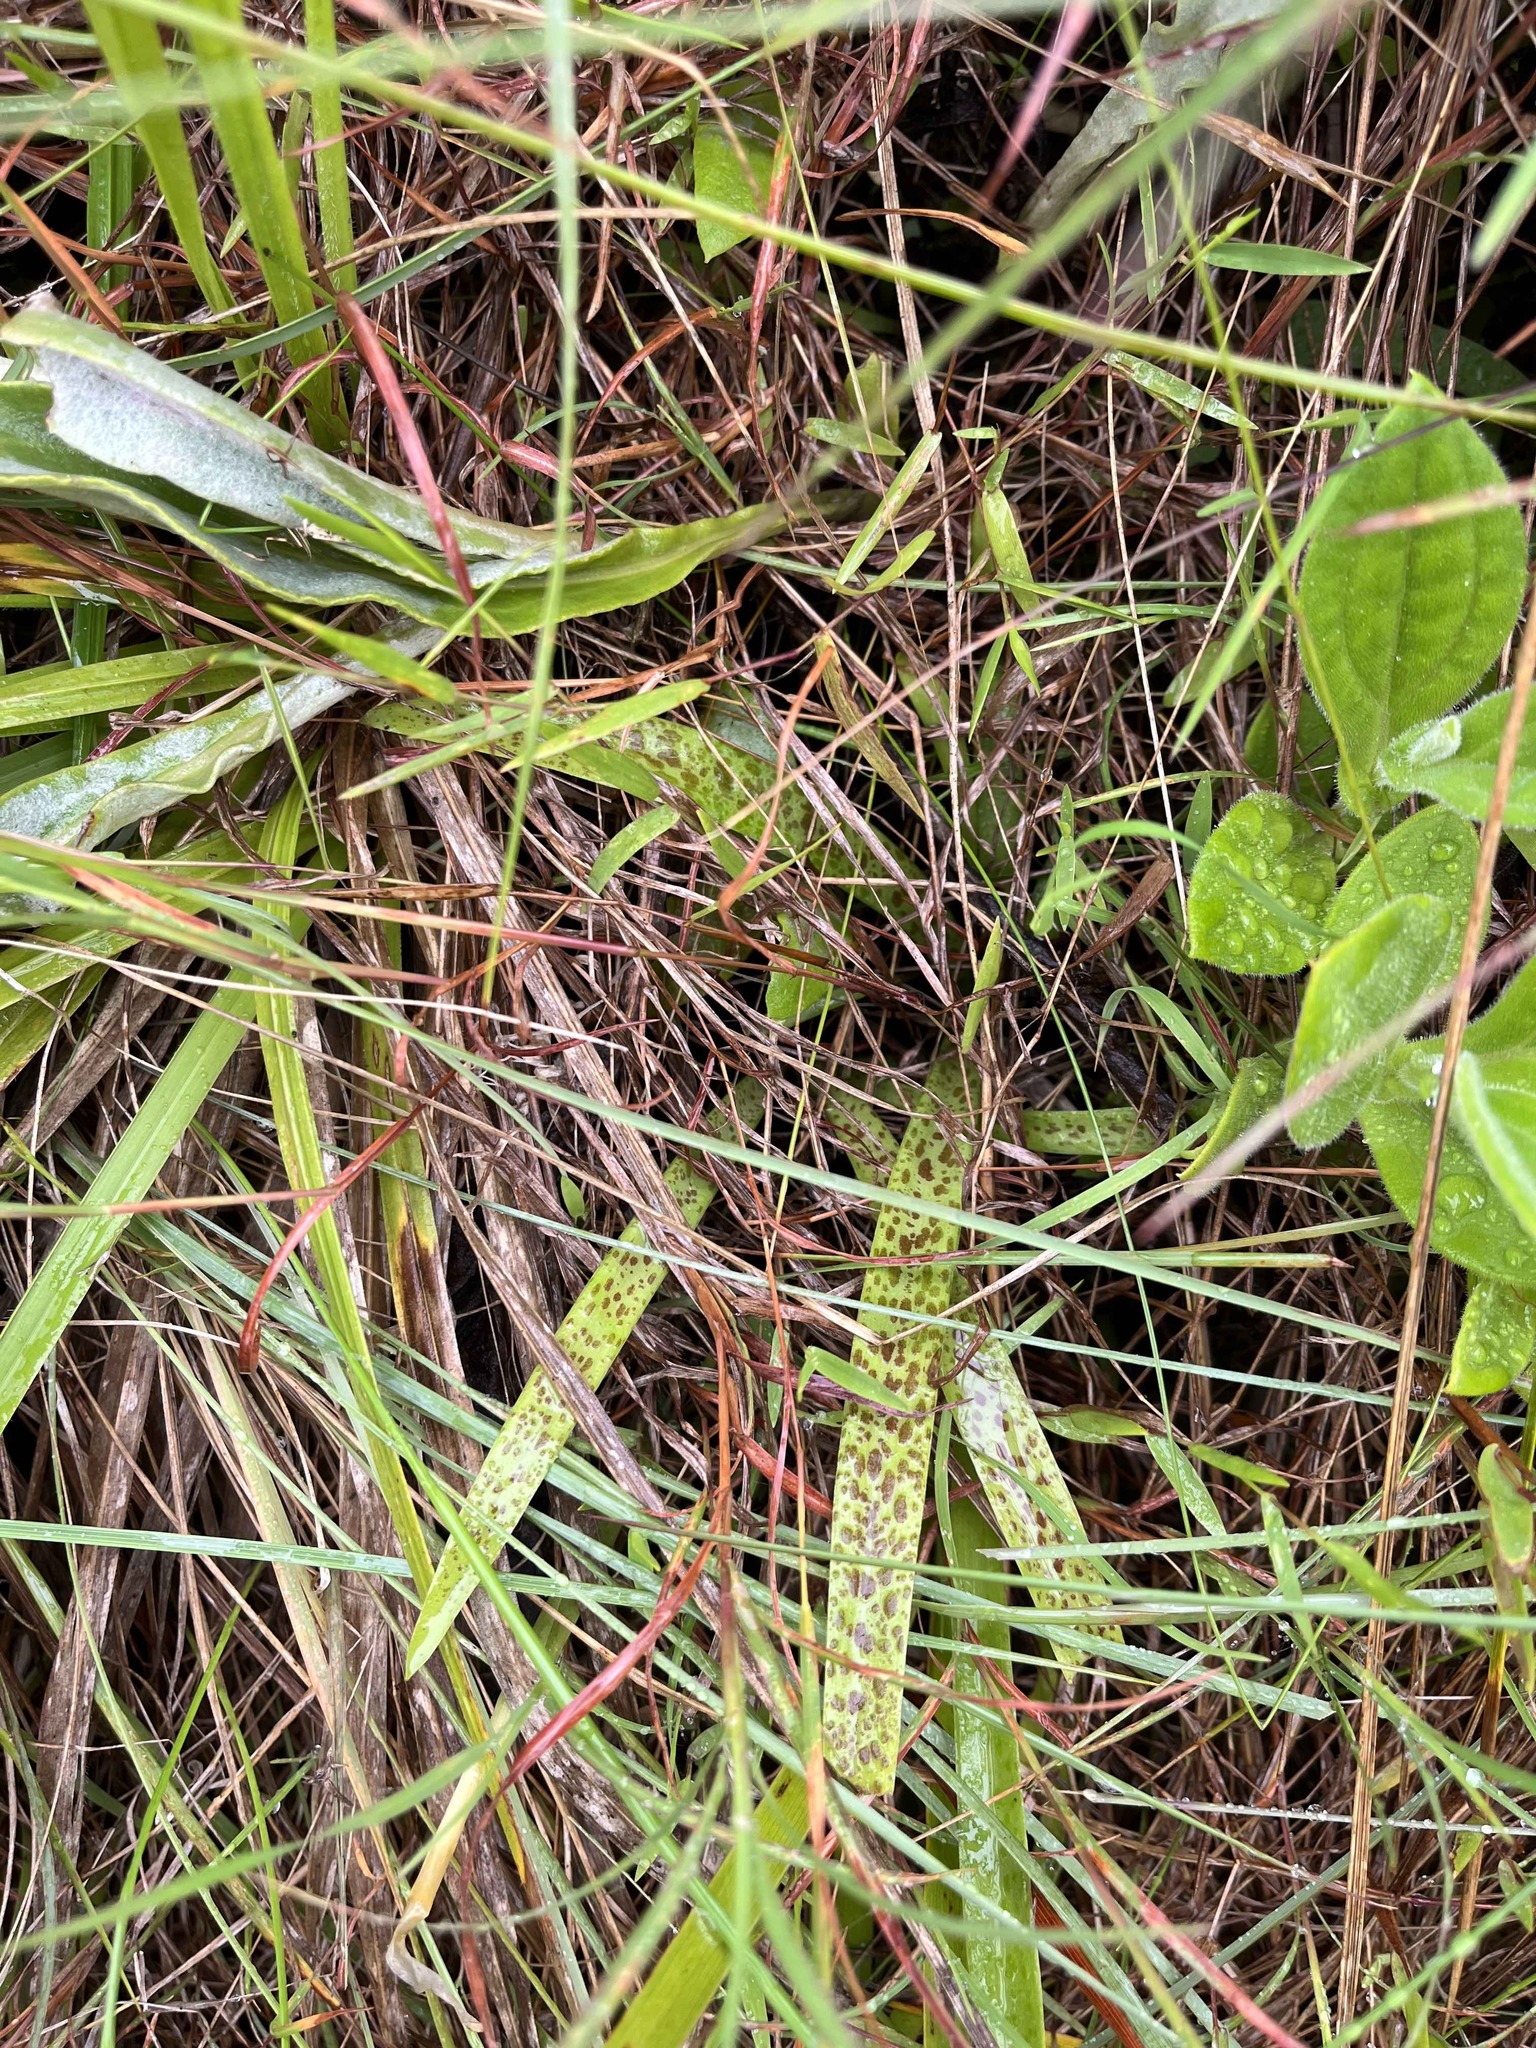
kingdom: Plantae
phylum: Tracheophyta
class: Liliopsida
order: Asparagales
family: Asparagaceae
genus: Ledebouria
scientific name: Ledebouria cooperi
